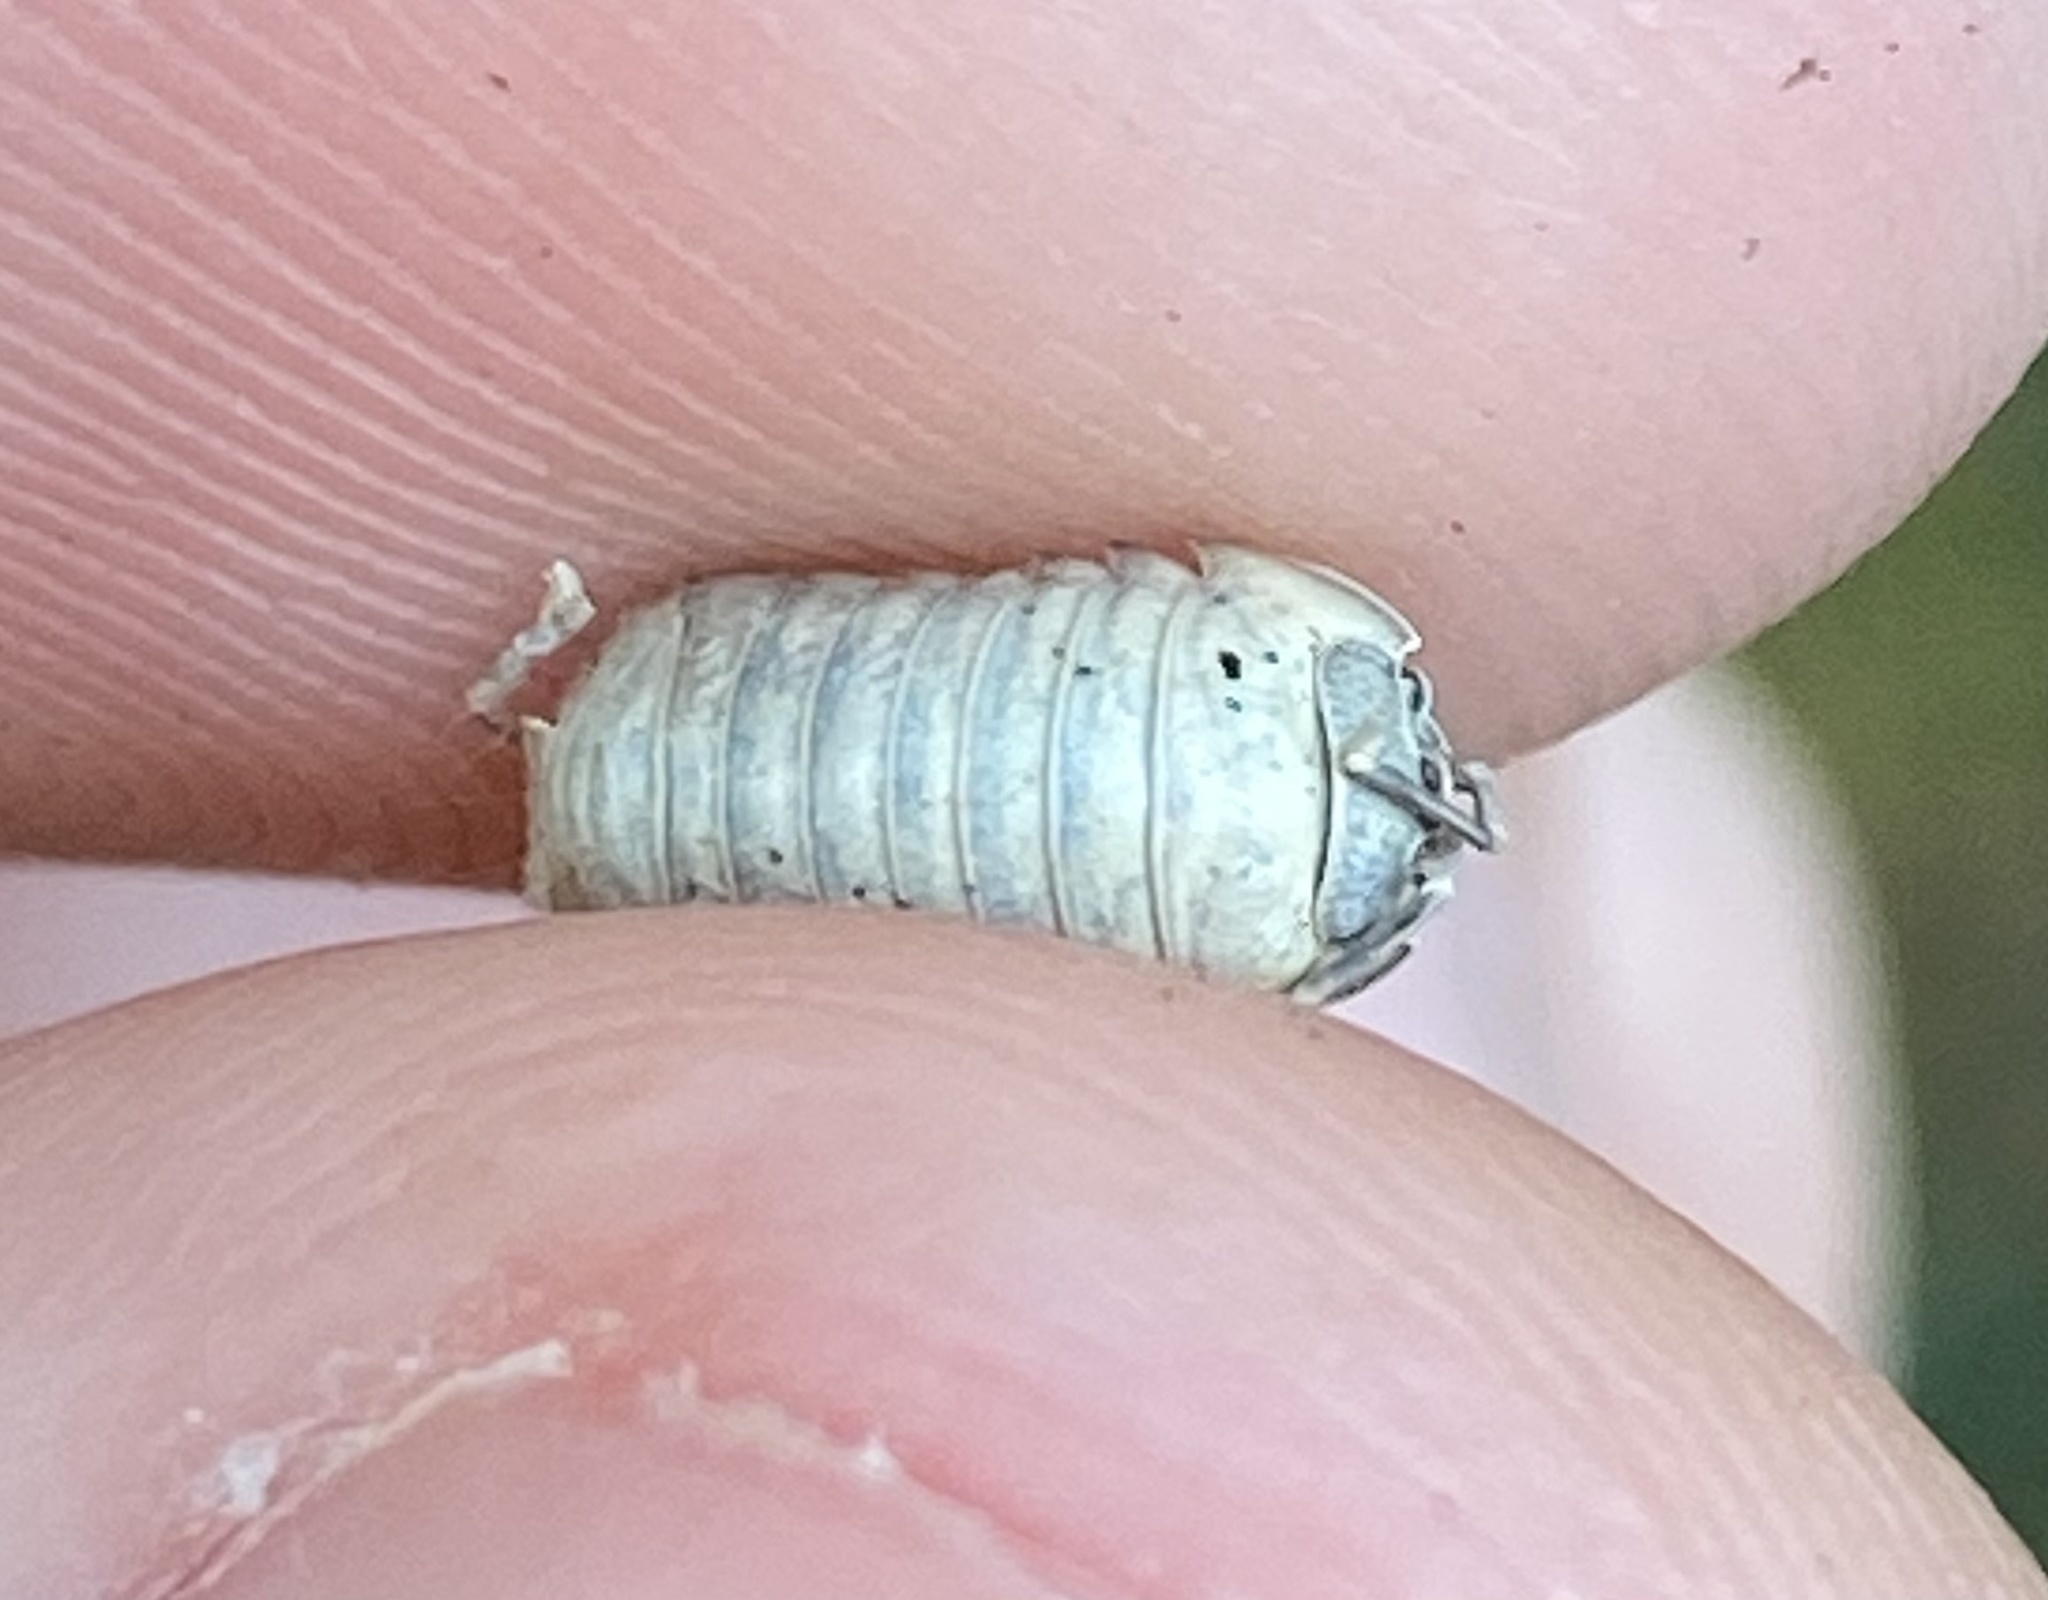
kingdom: Animalia
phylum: Arthropoda
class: Malacostraca
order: Isopoda
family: Armadillidiidae
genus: Armadillidium
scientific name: Armadillidium nasatum
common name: Isopod
